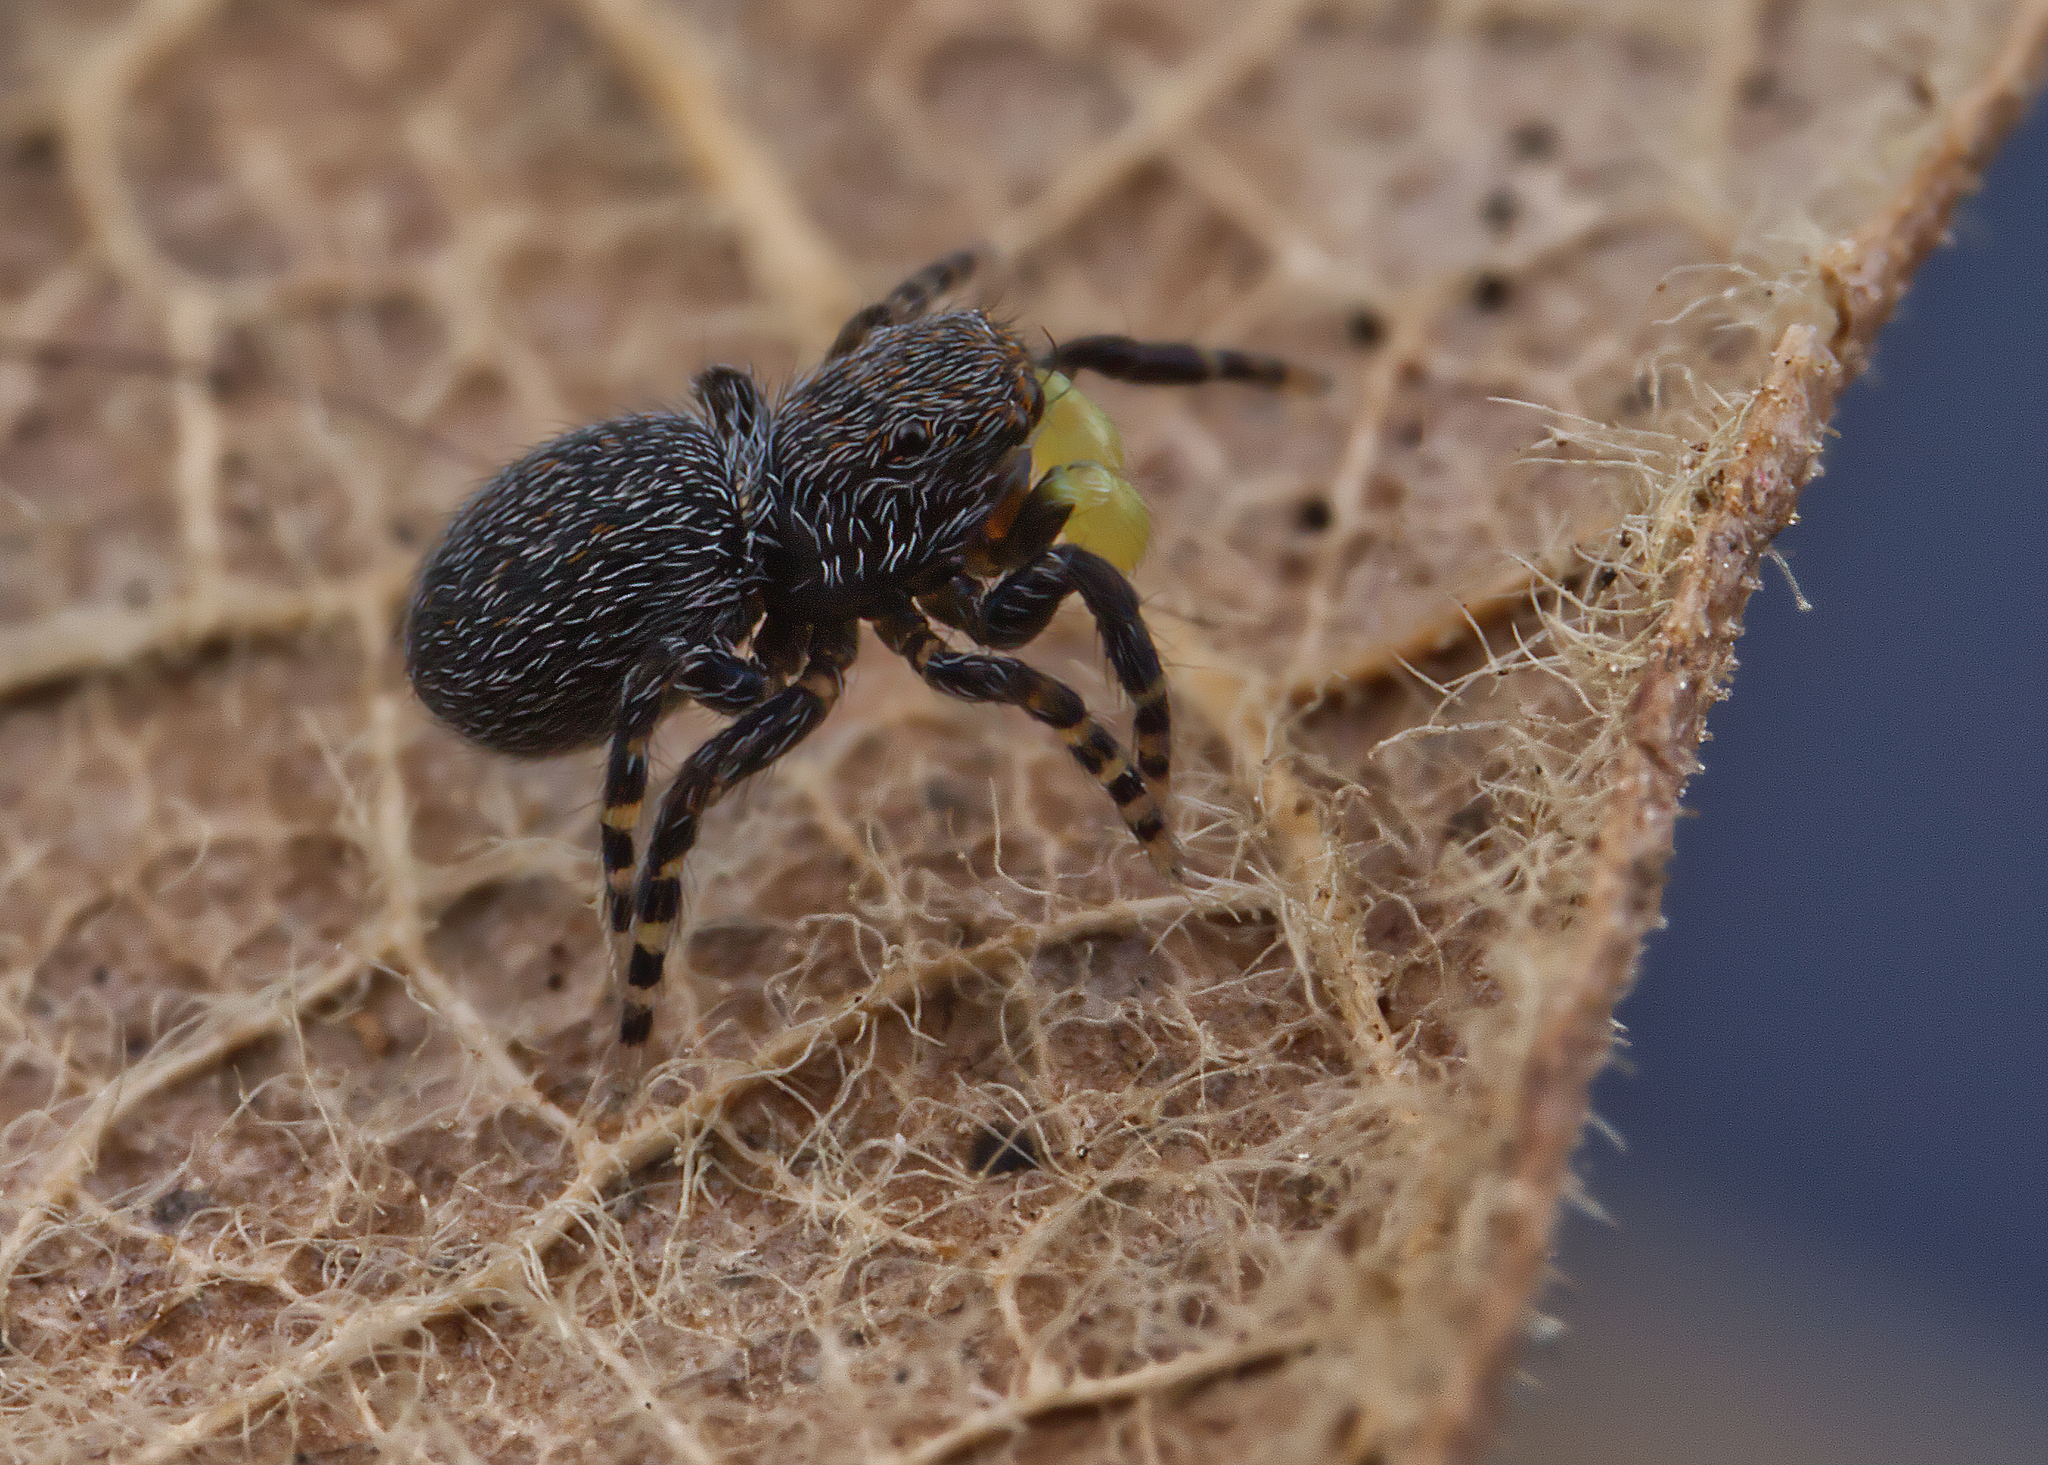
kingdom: Animalia
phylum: Arthropoda
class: Arachnida
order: Araneae
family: Salticidae
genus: Talavera
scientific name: Talavera minuta
